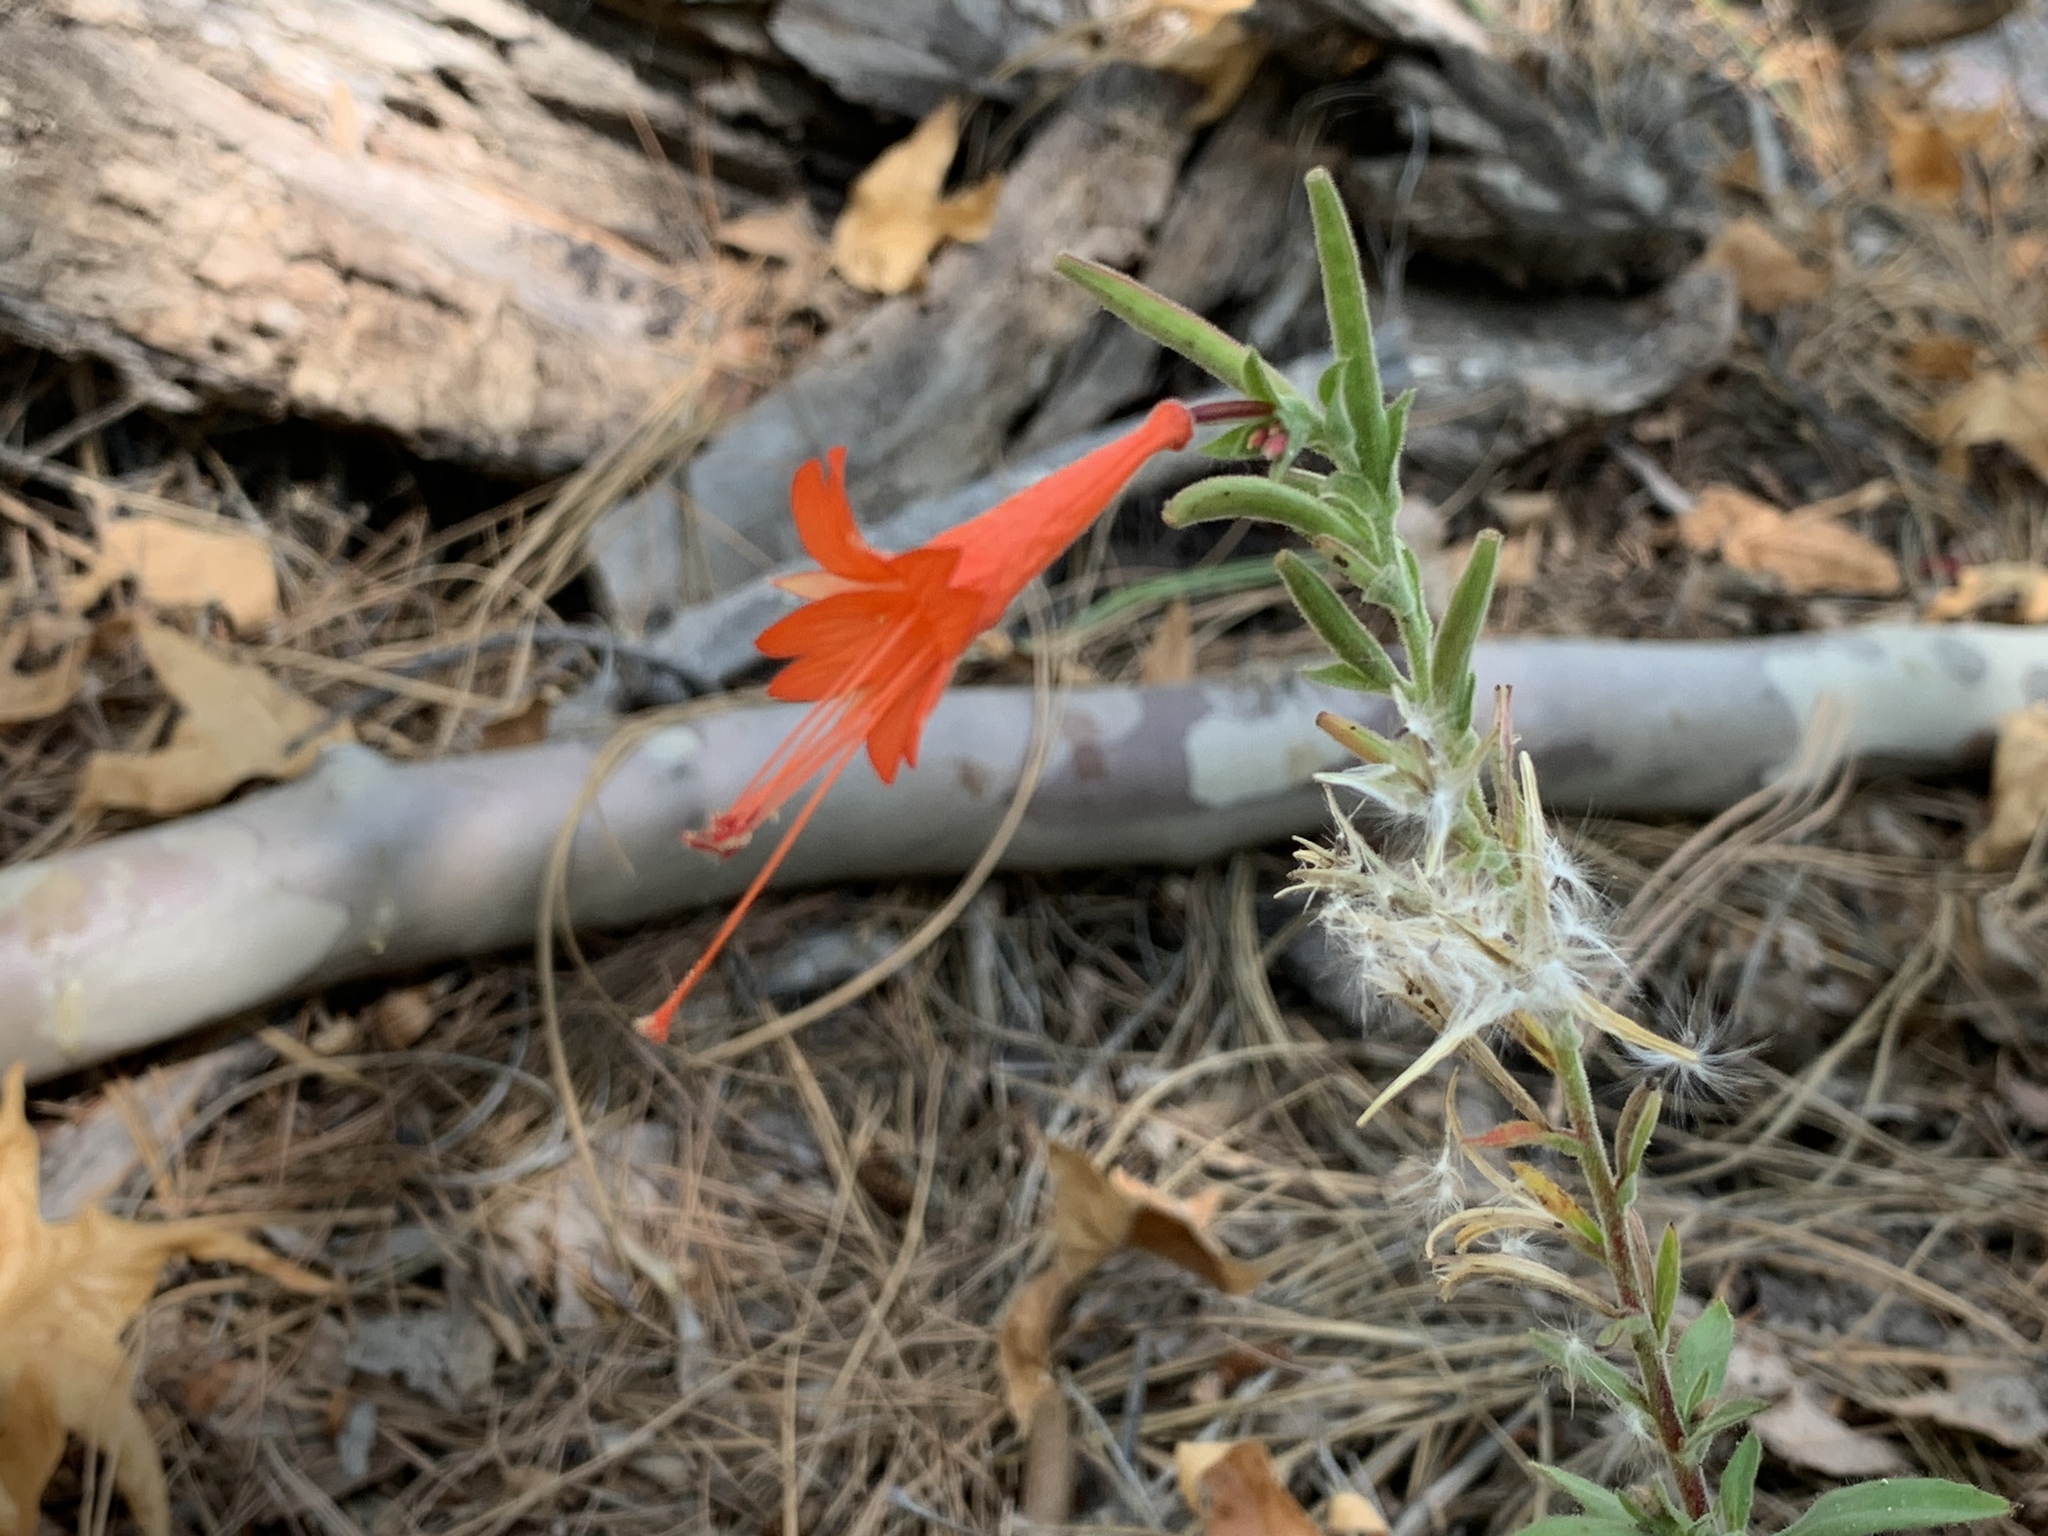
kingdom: Plantae
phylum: Tracheophyta
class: Magnoliopsida
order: Myrtales
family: Onagraceae
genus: Epilobium
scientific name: Epilobium canum
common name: California-fuchsia
